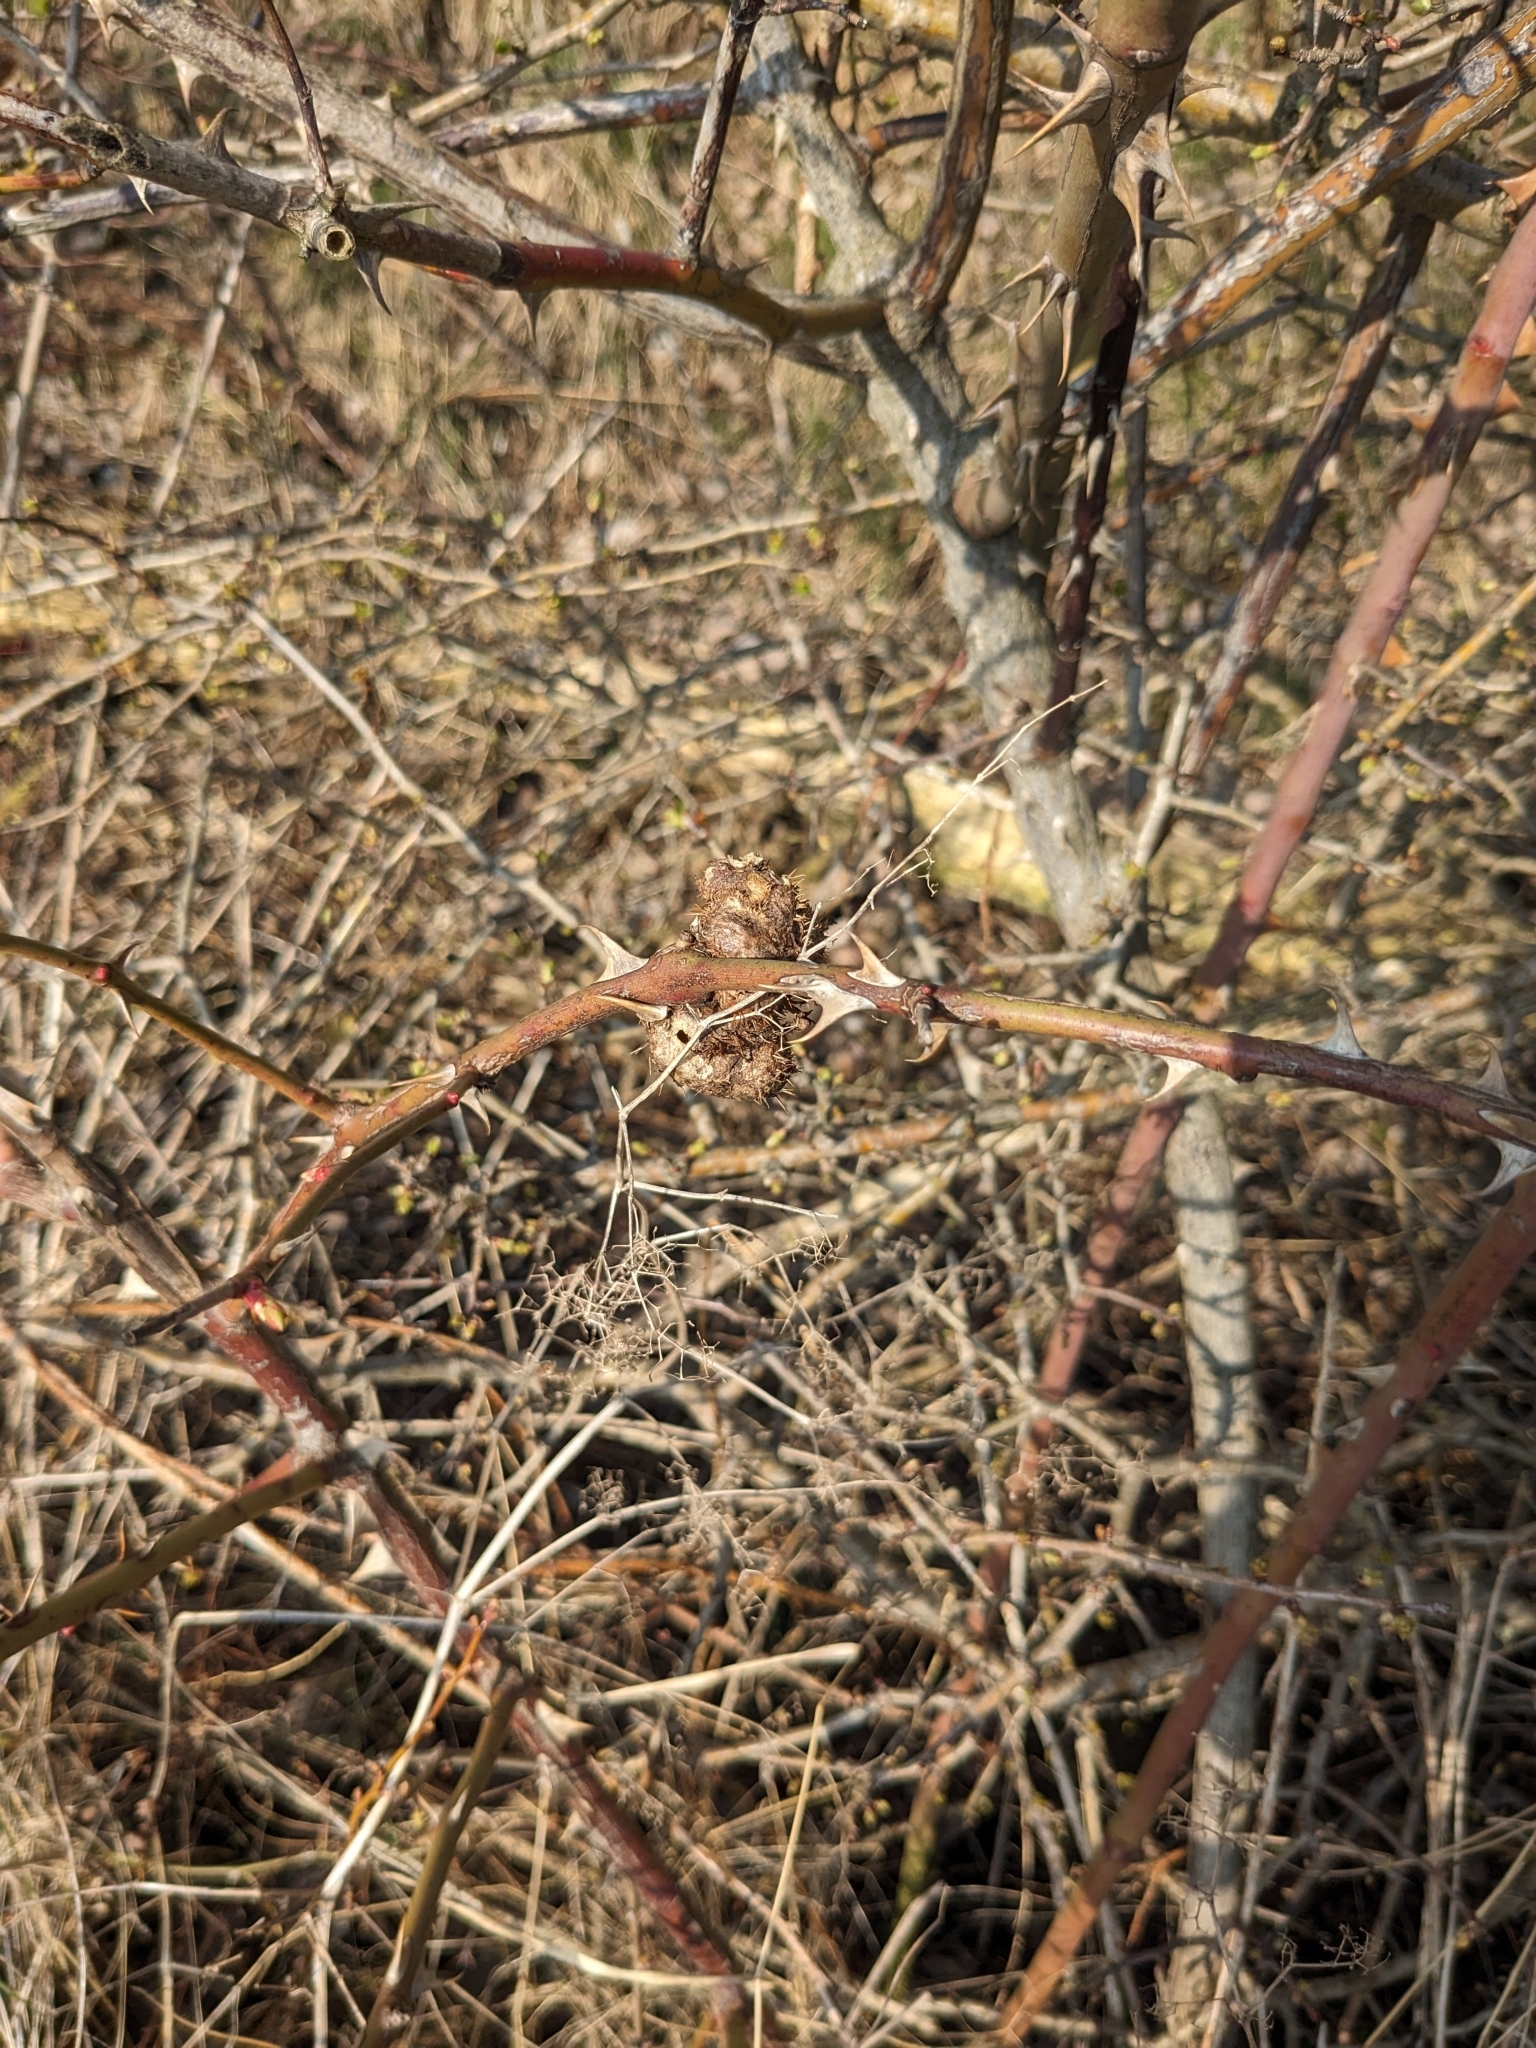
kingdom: Animalia
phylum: Arthropoda
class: Insecta
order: Hymenoptera
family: Cynipidae
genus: Diplolepis
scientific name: Diplolepis mayri
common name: Gall wasp
